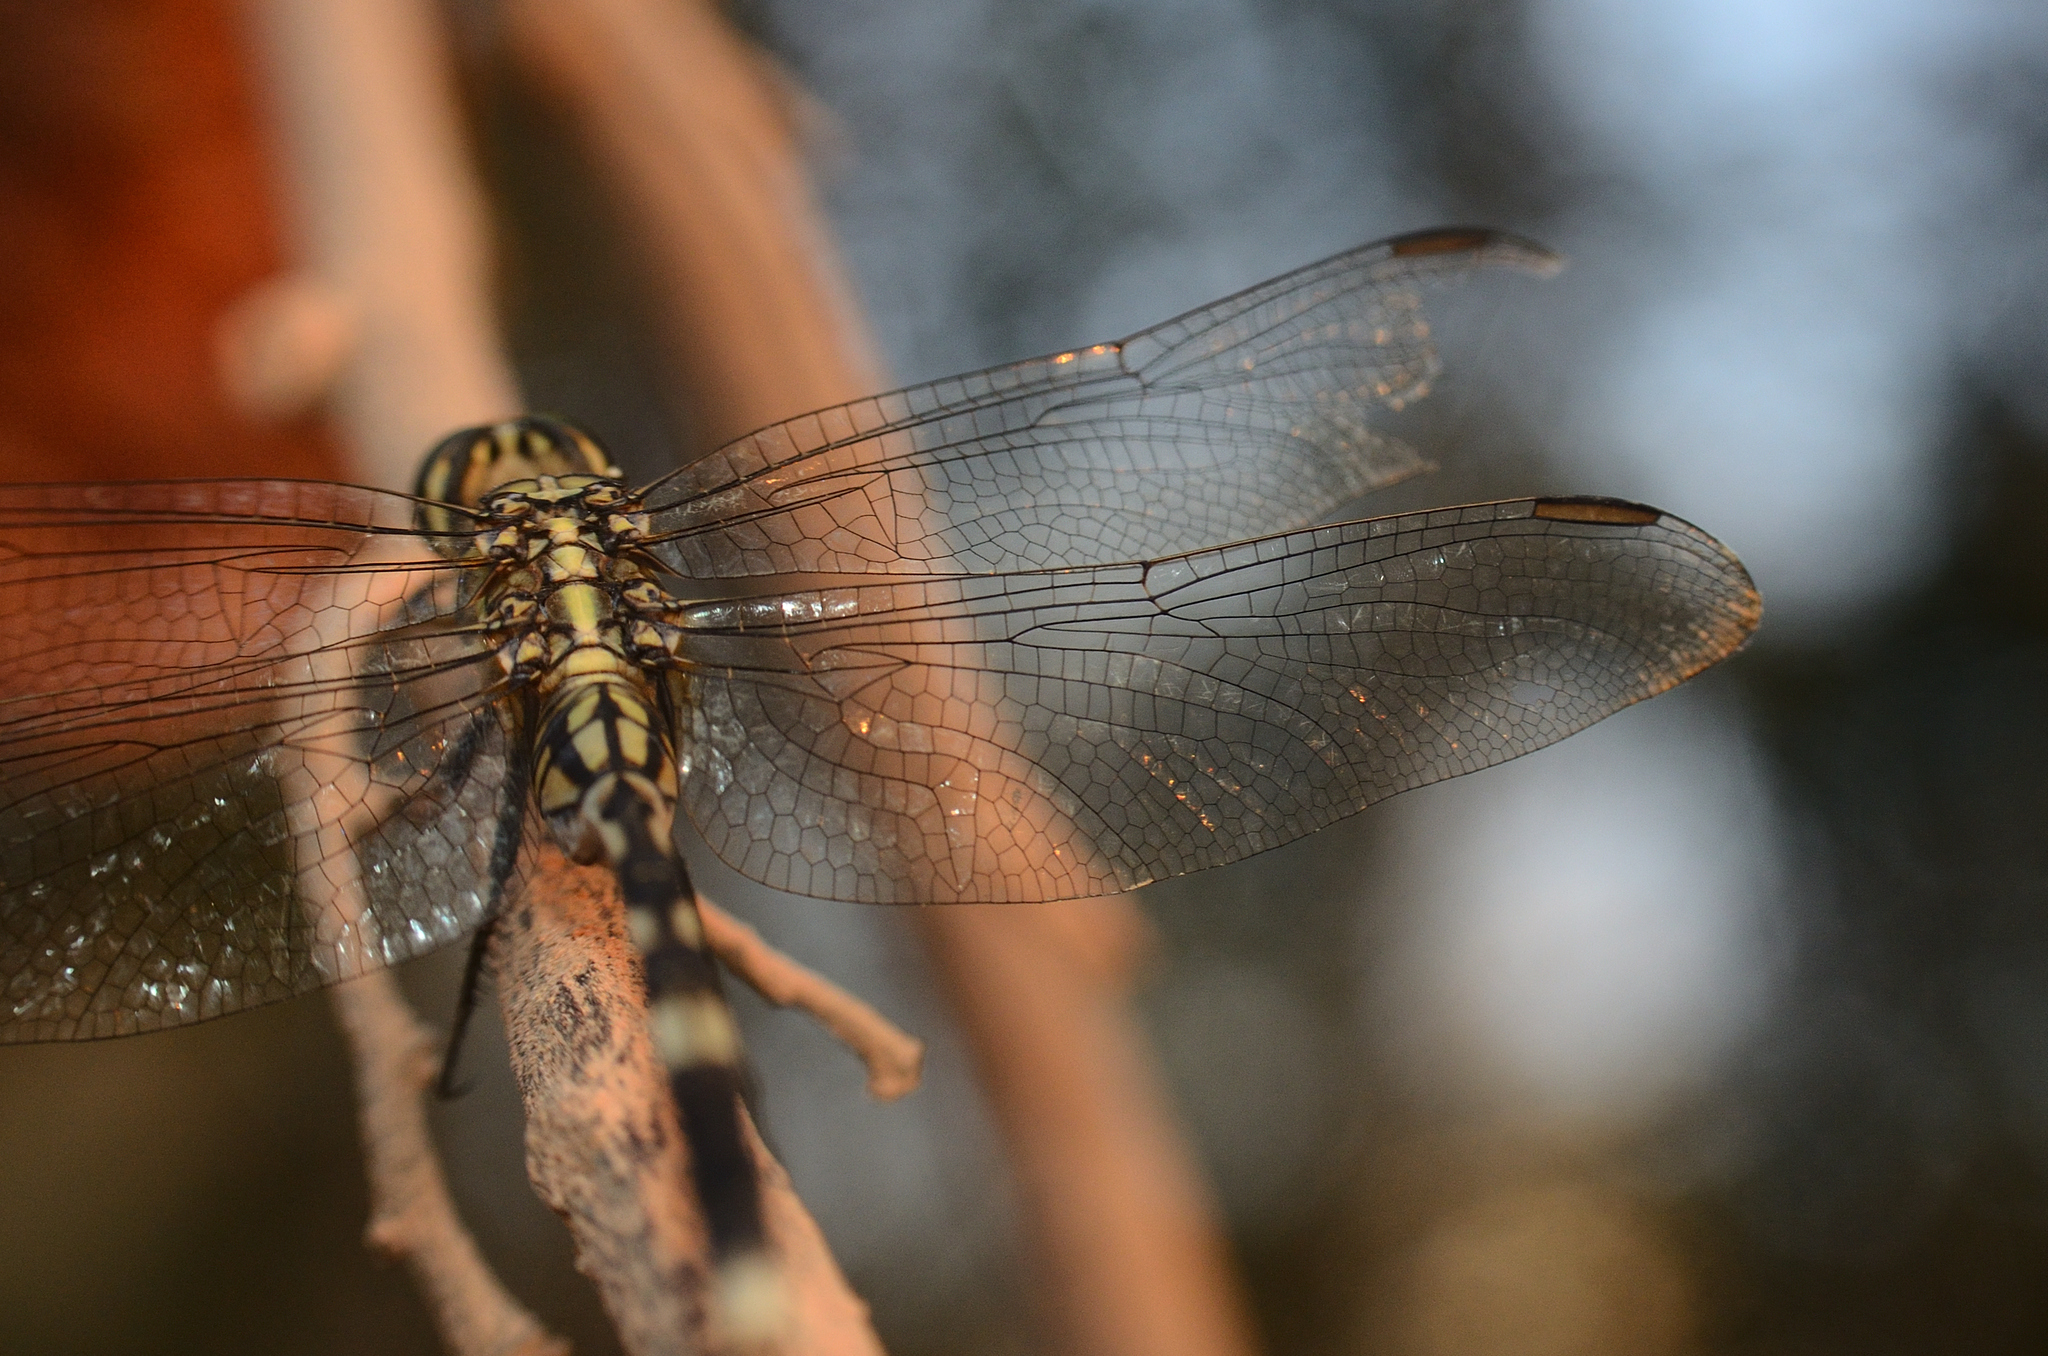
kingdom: Animalia
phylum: Arthropoda
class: Insecta
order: Odonata
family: Libellulidae
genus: Orthetrum
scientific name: Orthetrum sabina
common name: Slender skimmer
